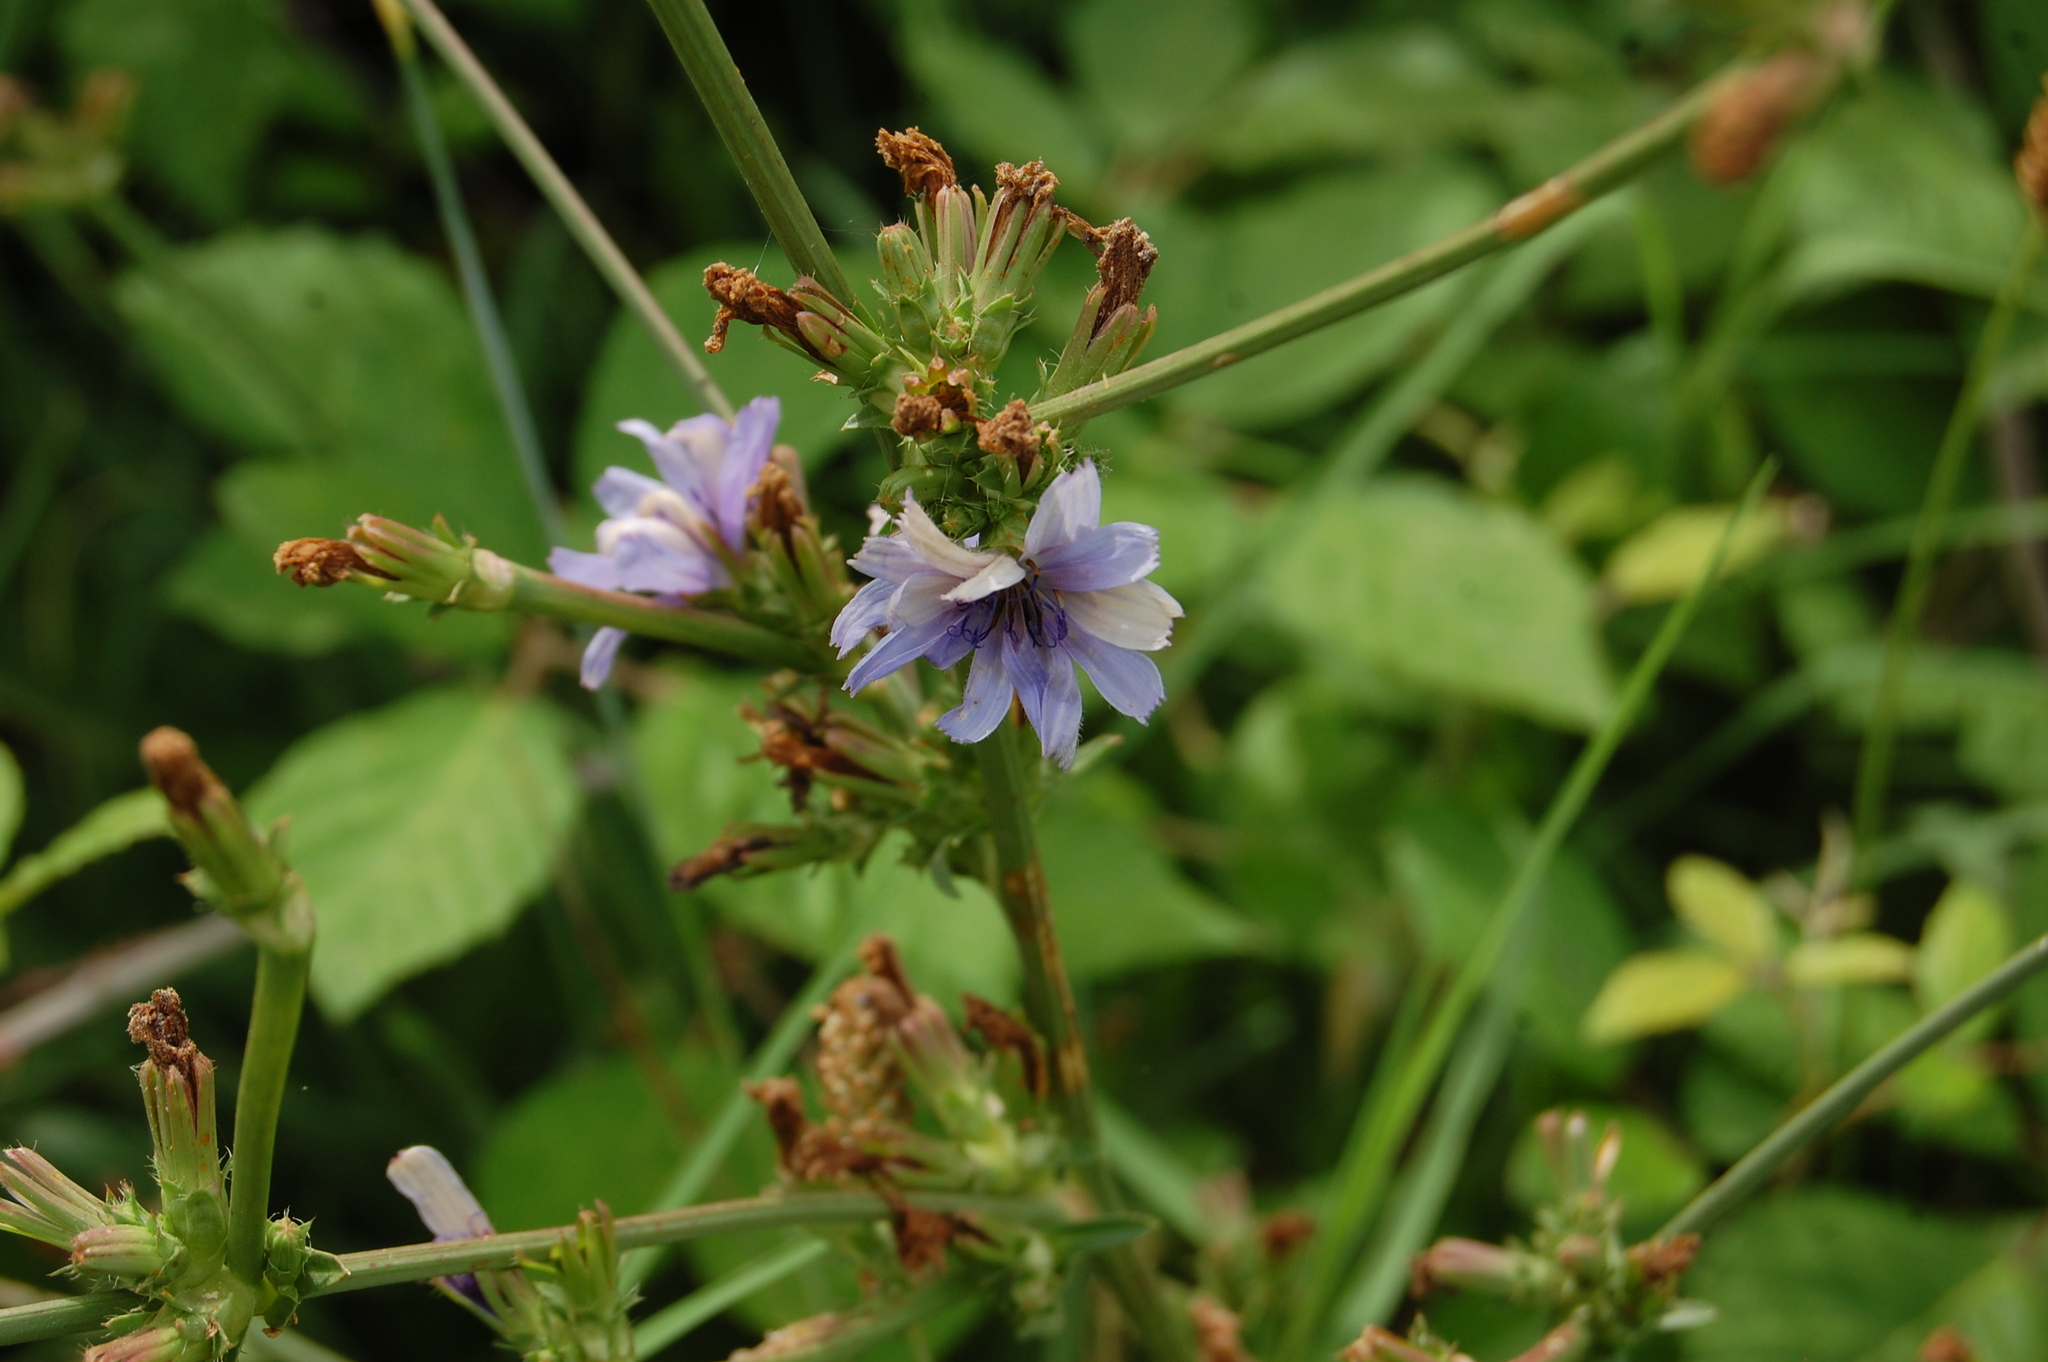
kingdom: Plantae
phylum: Tracheophyta
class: Magnoliopsida
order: Asterales
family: Asteraceae
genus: Cichorium
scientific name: Cichorium intybus
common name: Chicory
